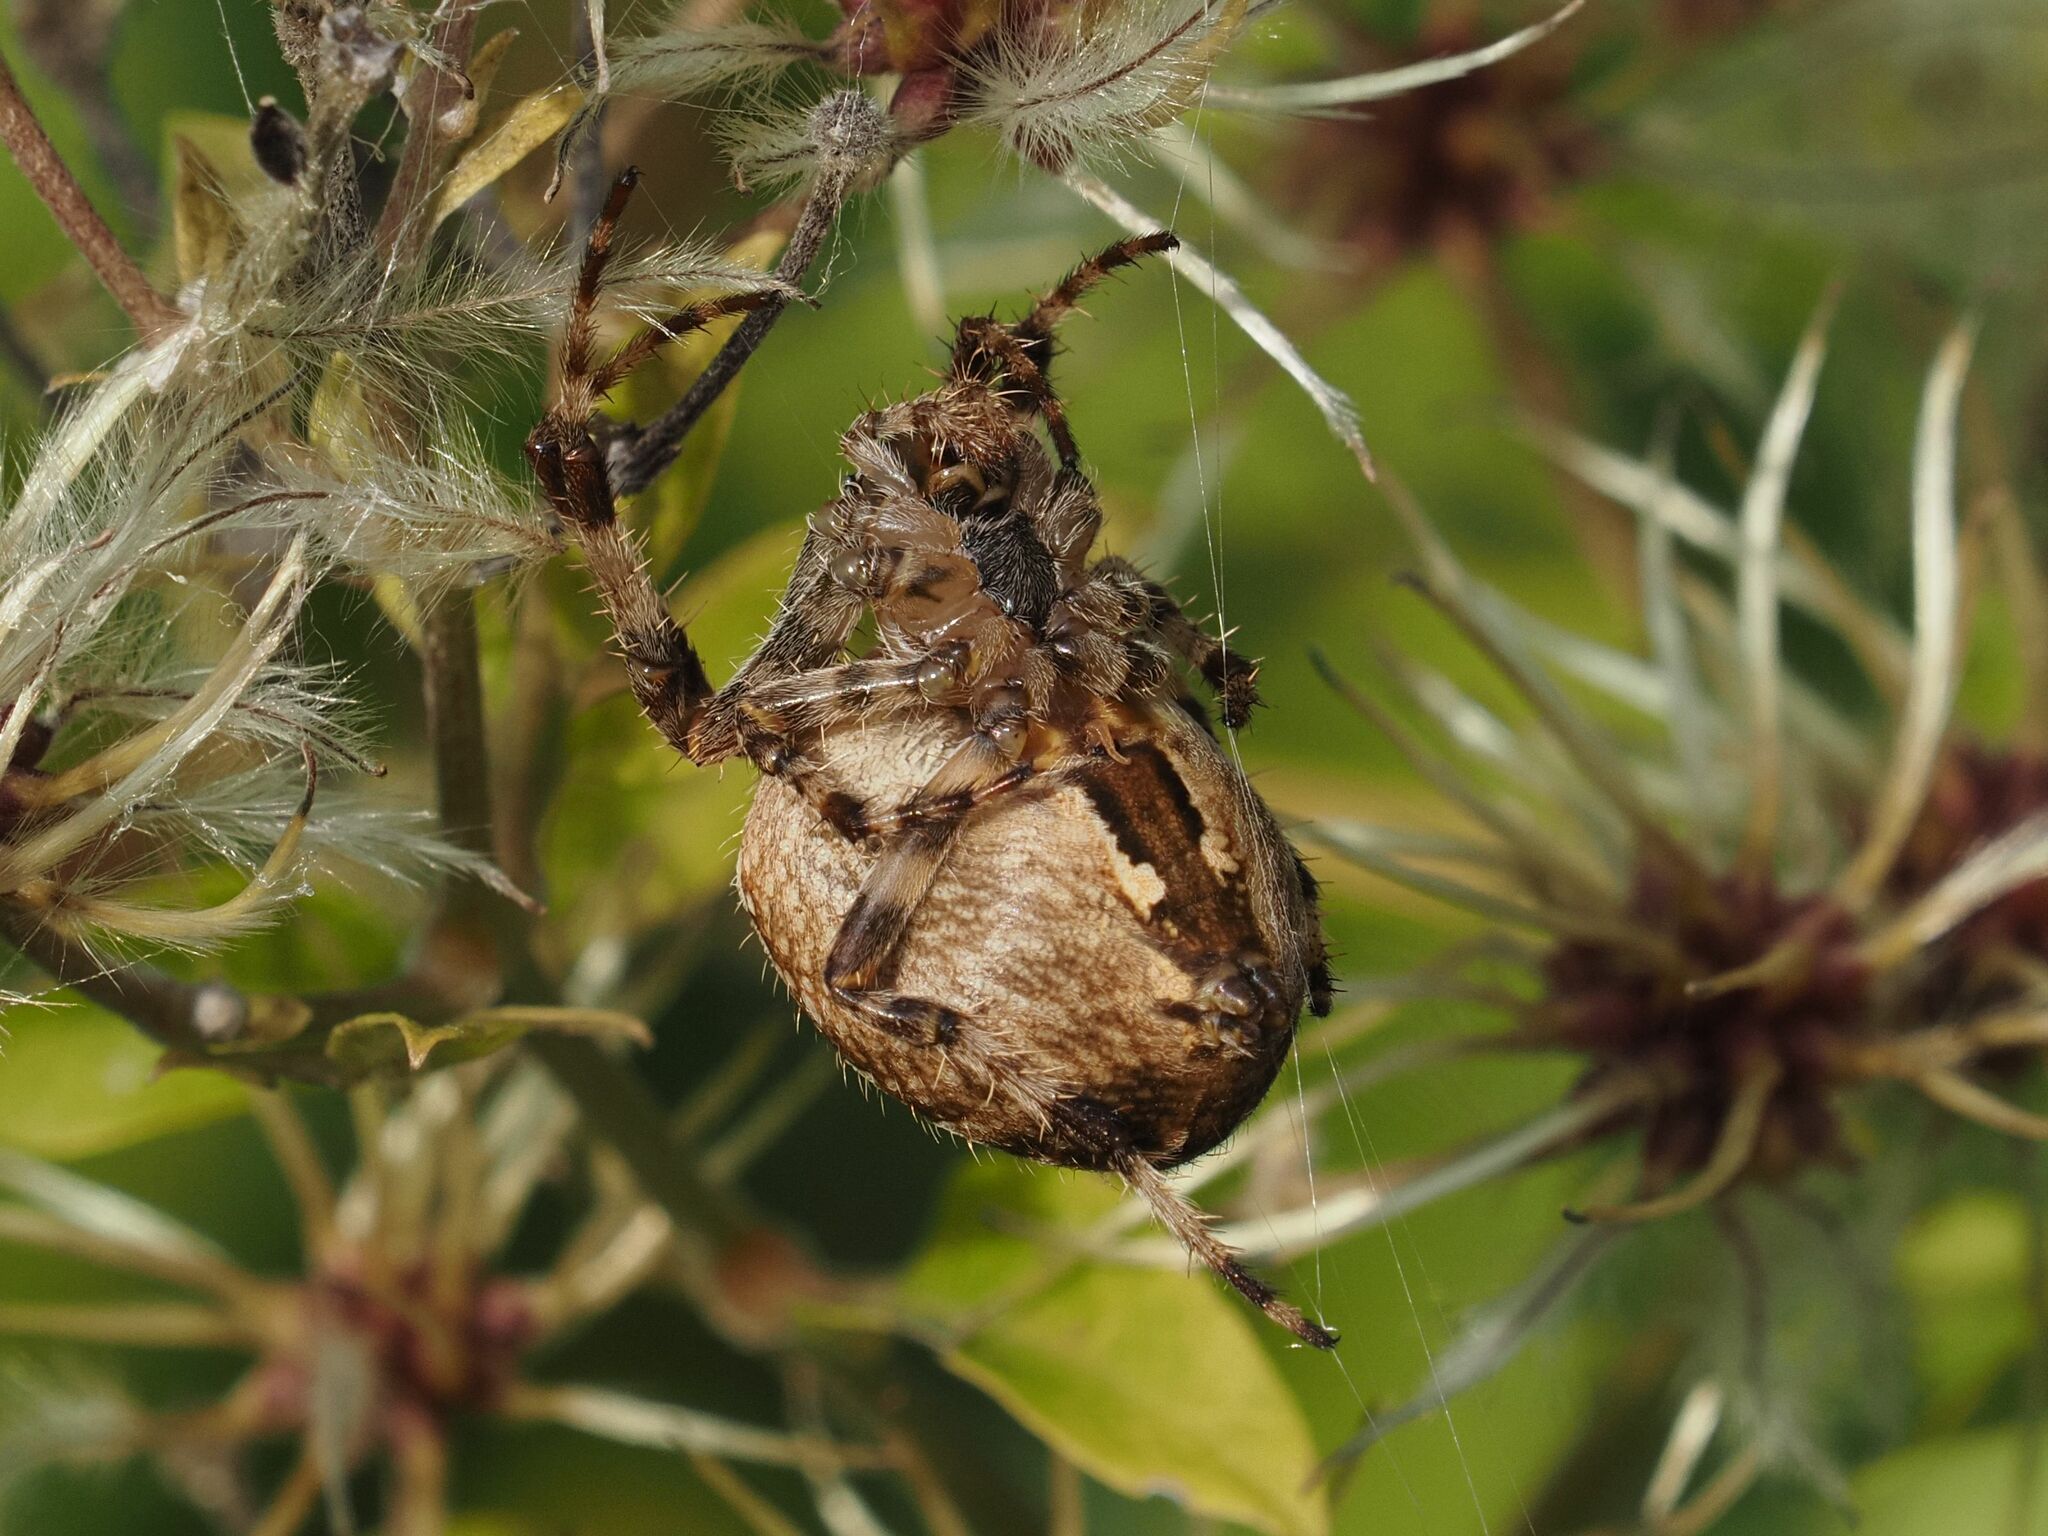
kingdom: Animalia
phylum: Arthropoda
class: Arachnida
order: Araneae
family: Araneidae
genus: Araneus
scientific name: Araneus diadematus
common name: Cross orbweaver
